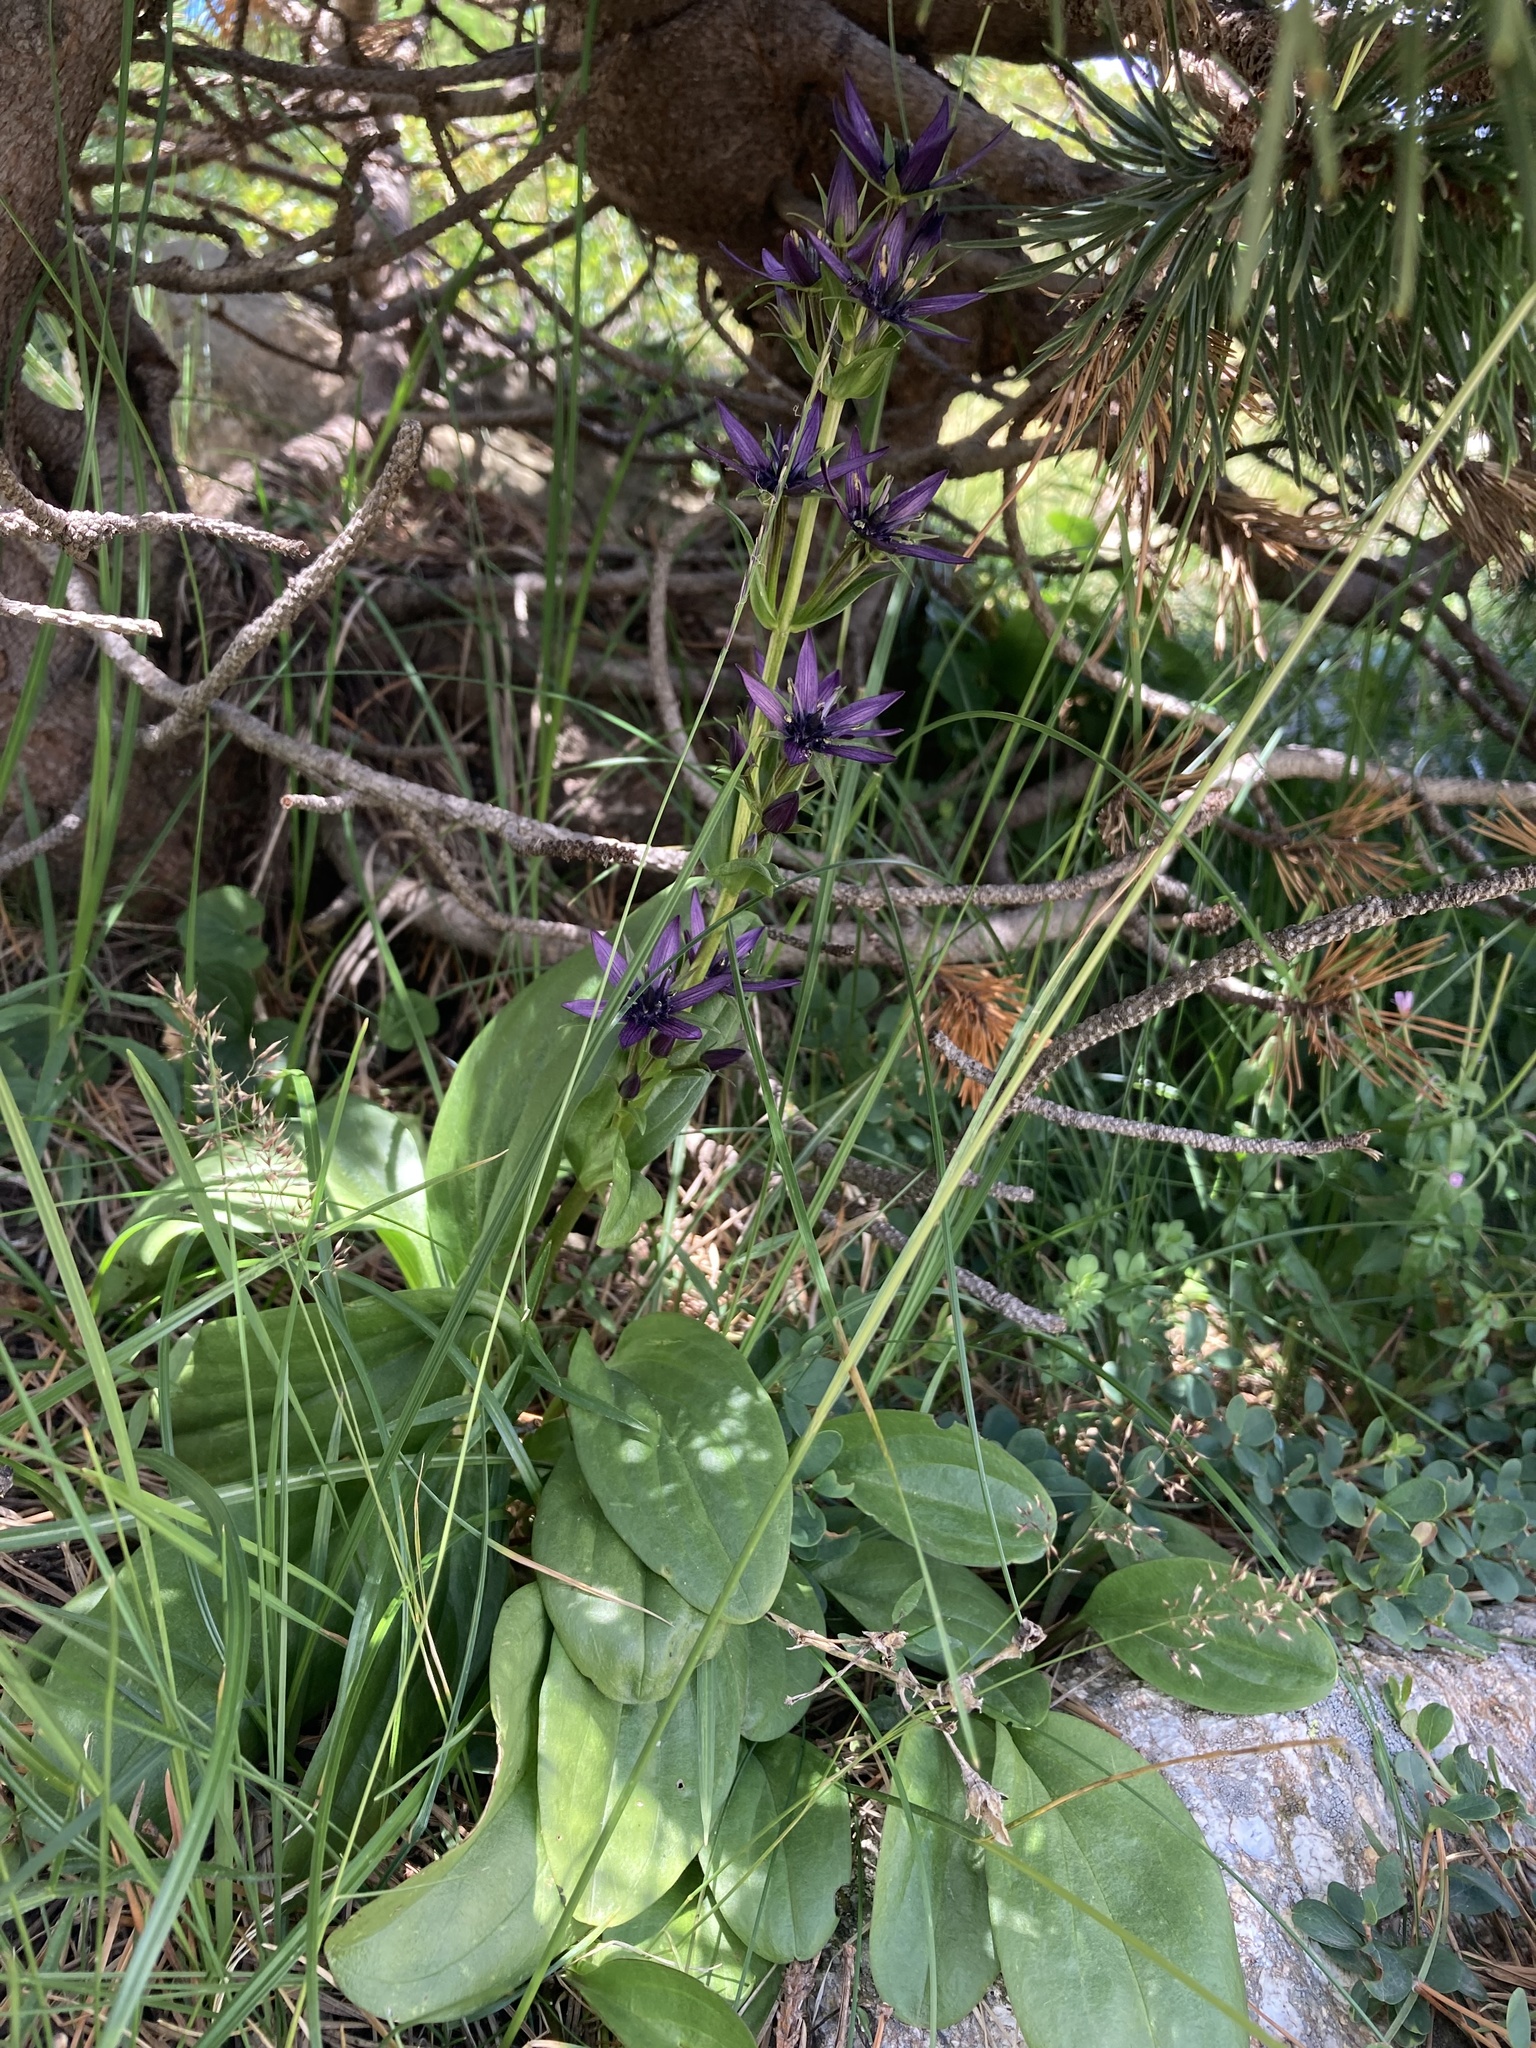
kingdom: Plantae
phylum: Tracheophyta
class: Magnoliopsida
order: Gentianales
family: Gentianaceae
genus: Swertia
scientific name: Swertia perennis
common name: Alpine bog swertia
